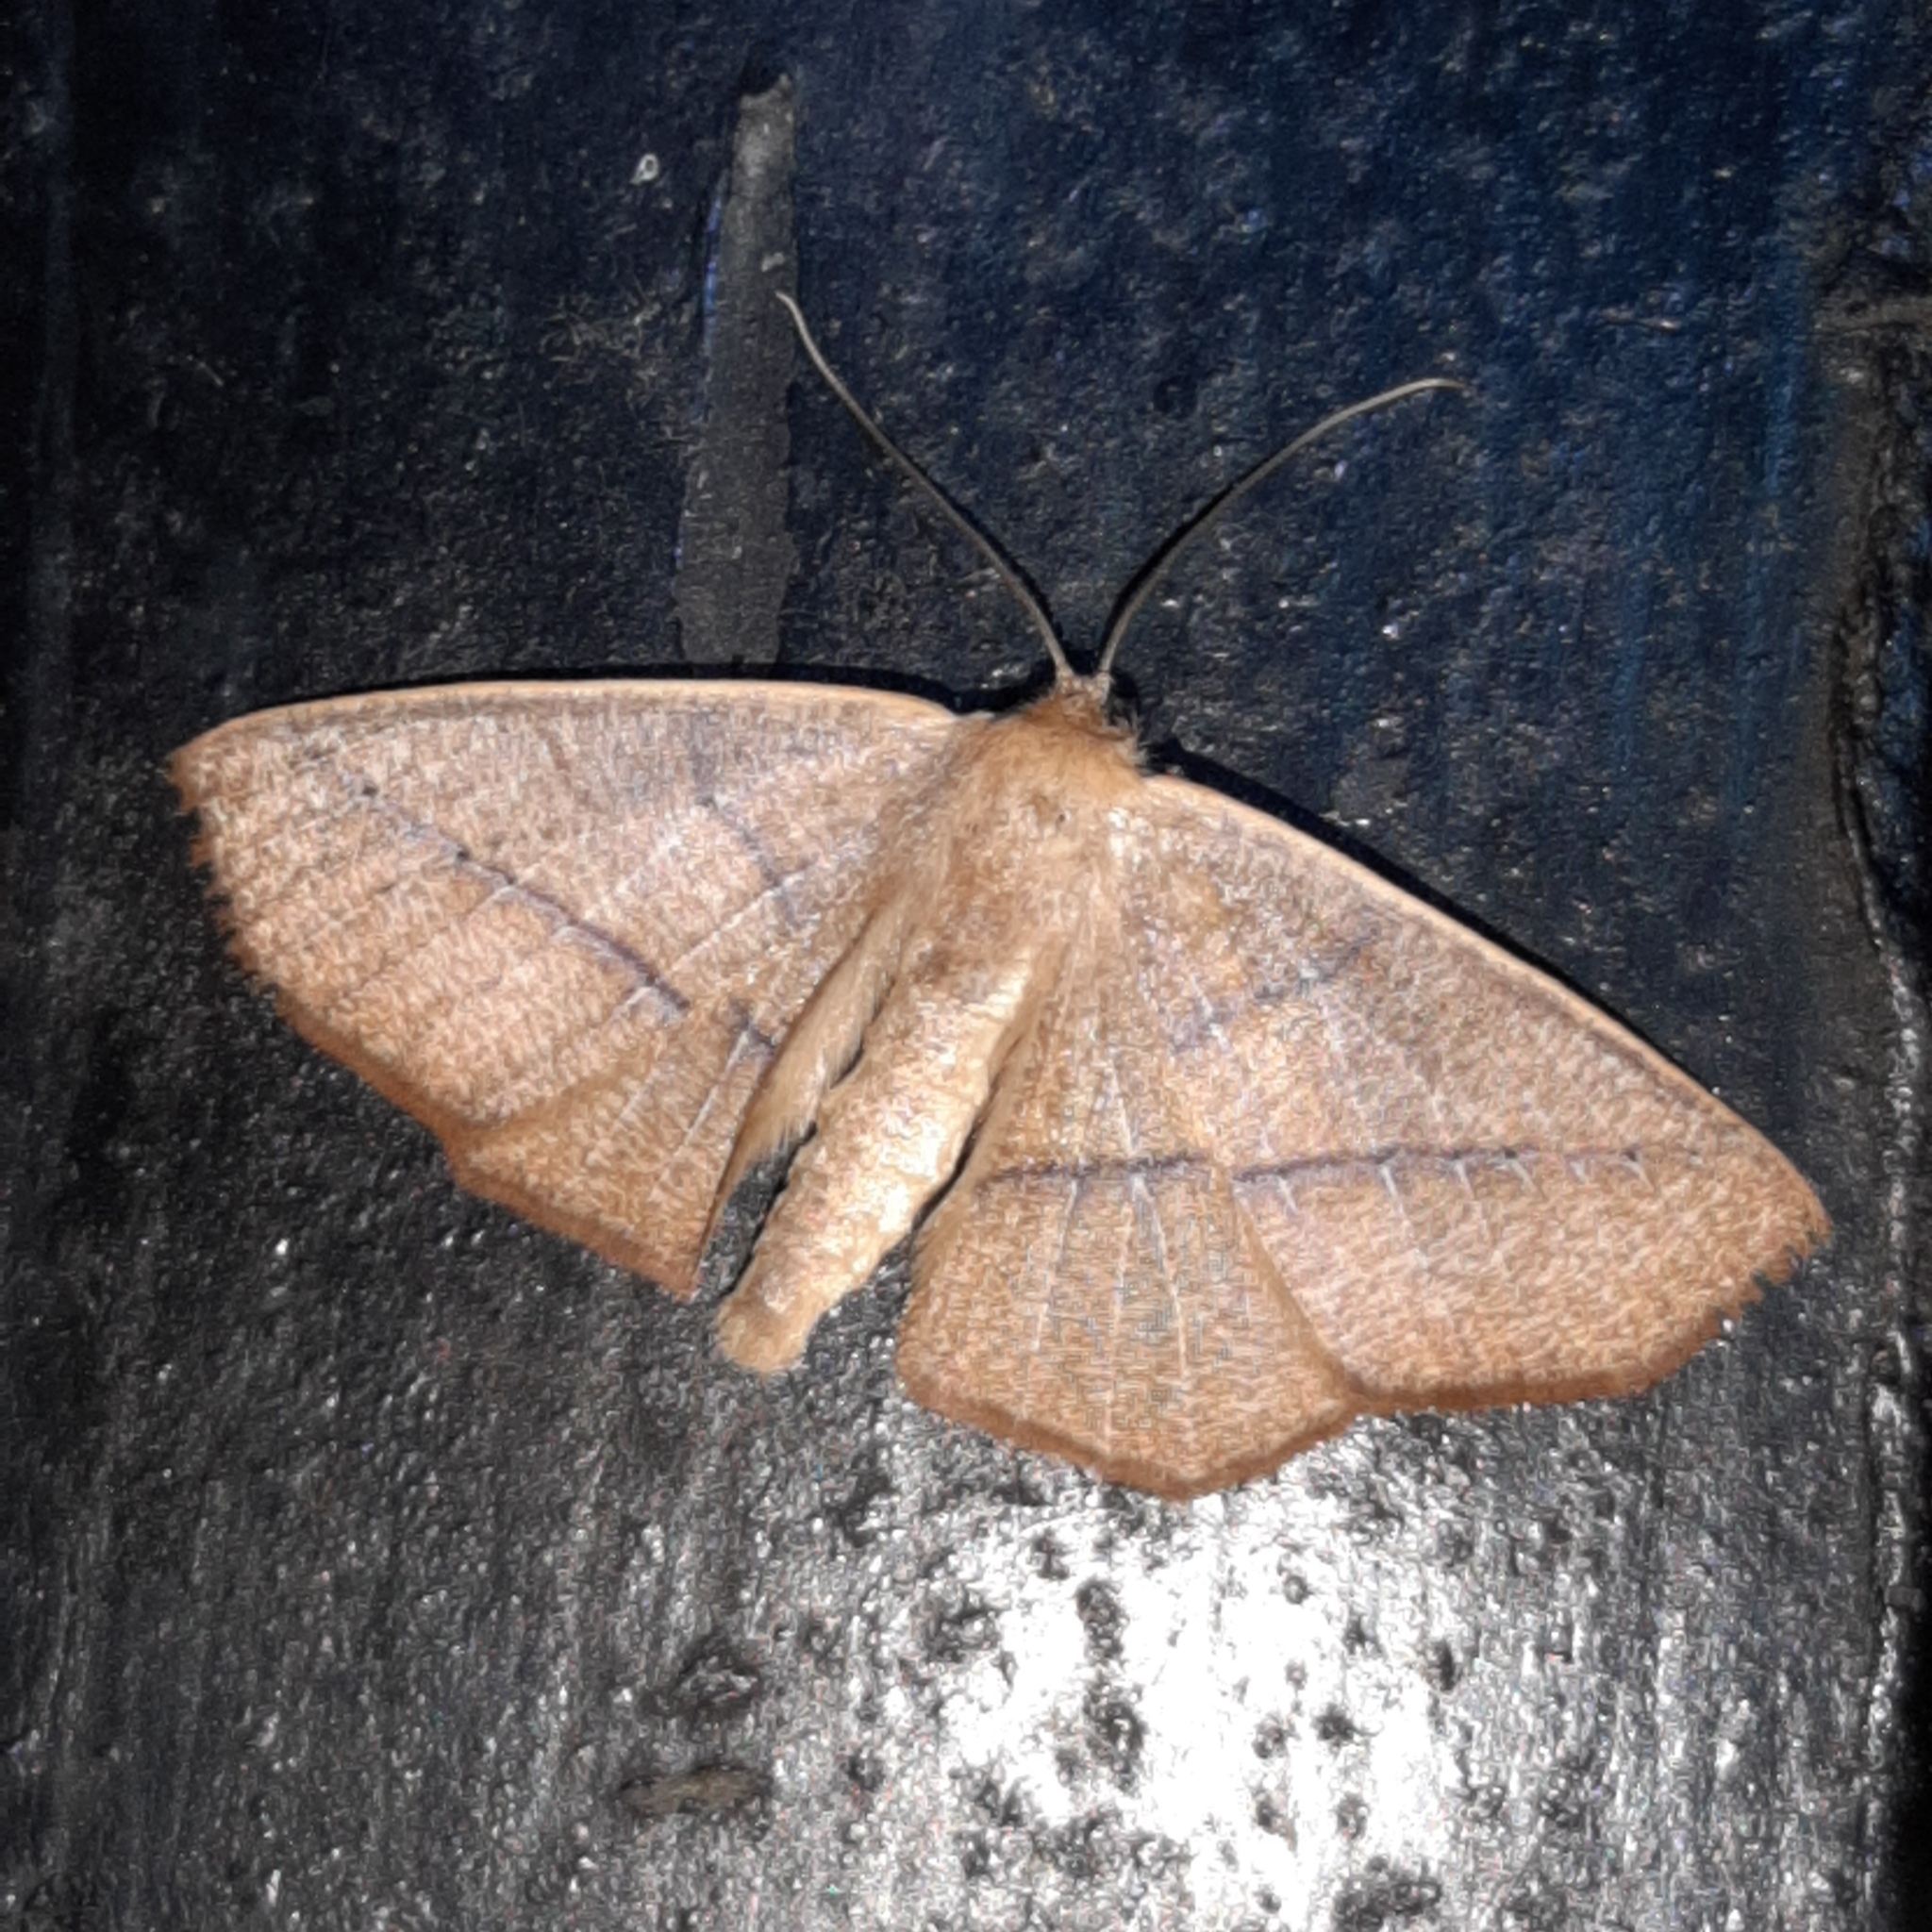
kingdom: Animalia
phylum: Arthropoda
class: Insecta
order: Lepidoptera
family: Geometridae
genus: Sabulodes
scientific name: Sabulodes arses
